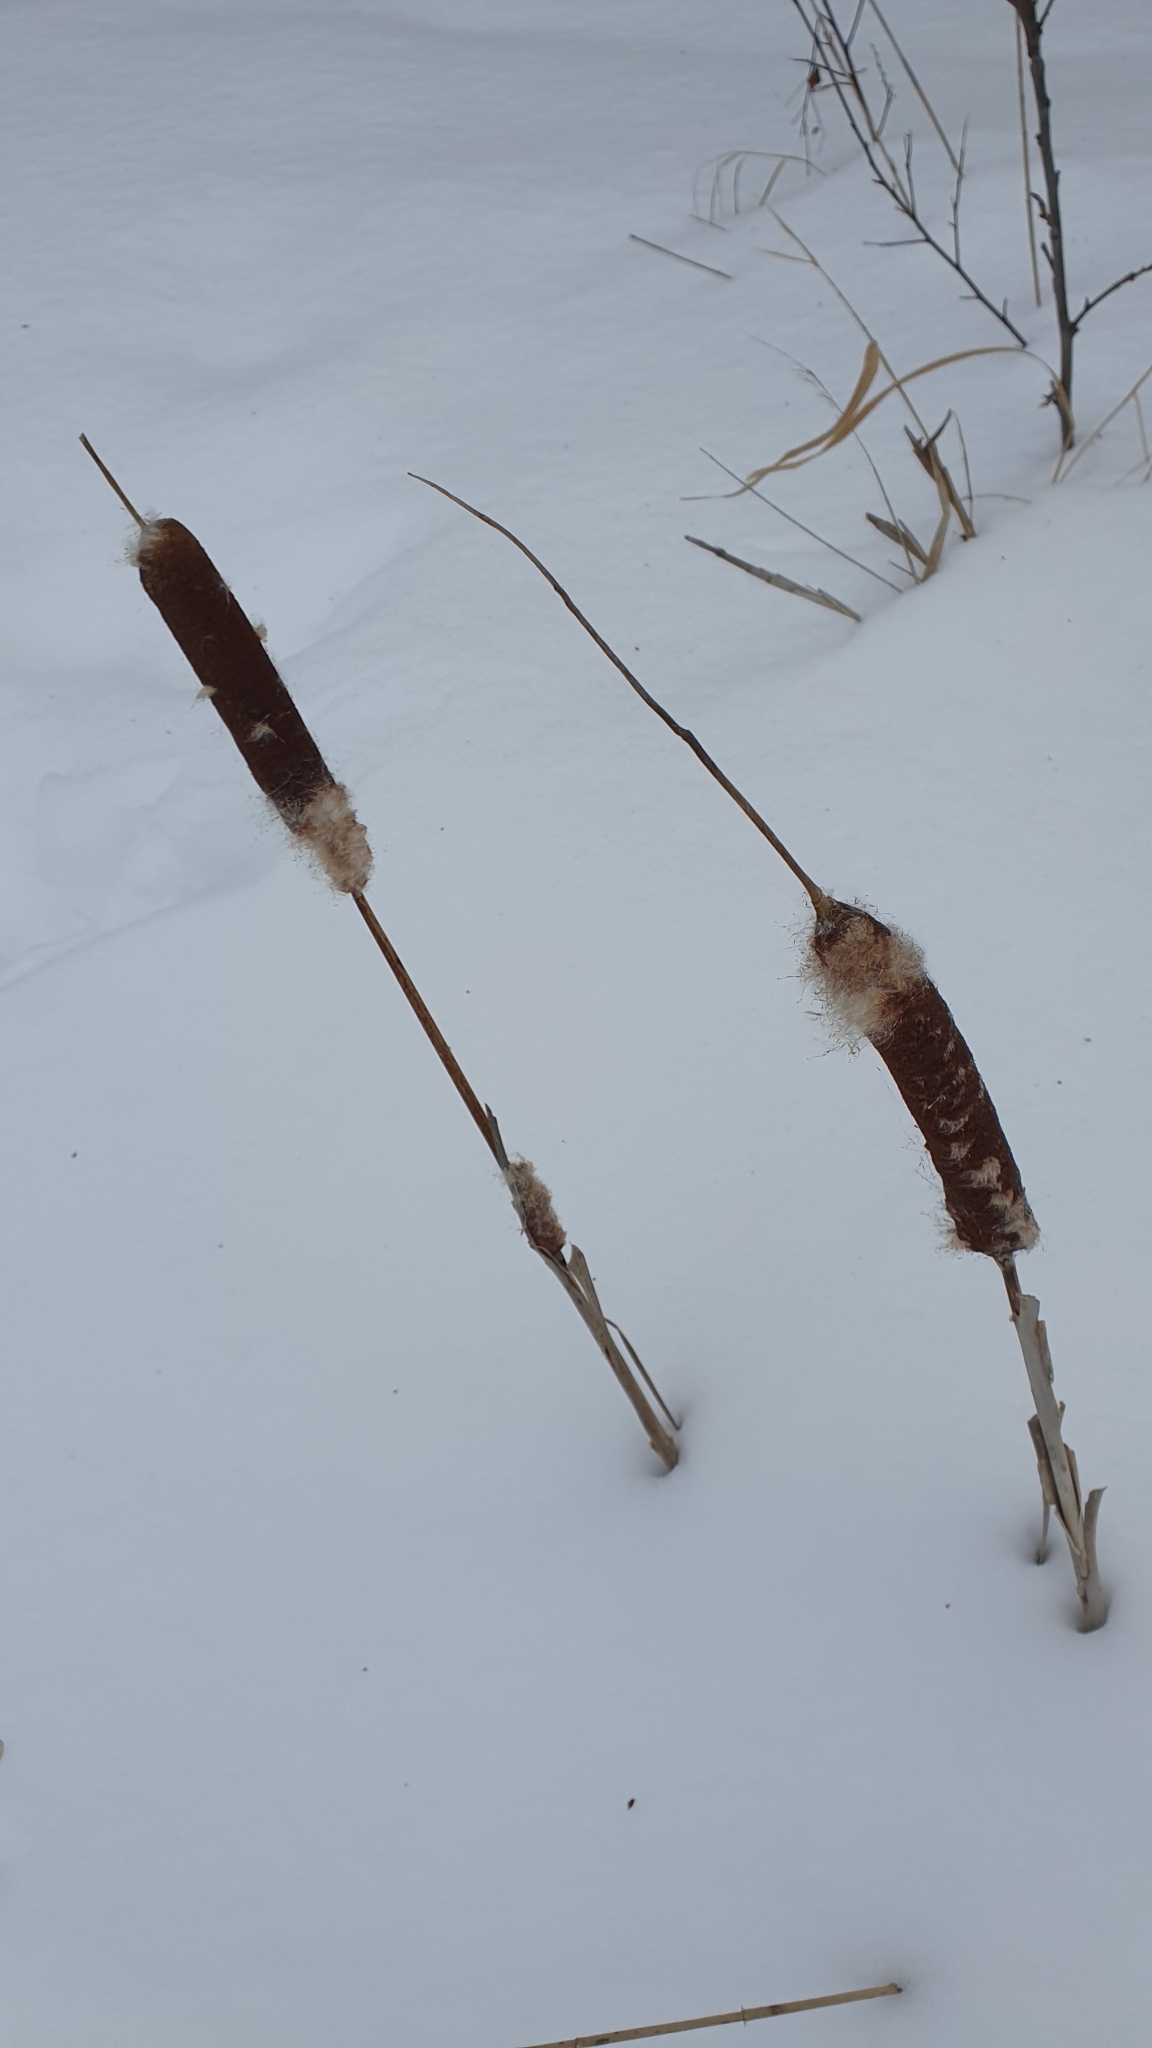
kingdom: Plantae
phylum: Tracheophyta
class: Liliopsida
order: Poales
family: Typhaceae
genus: Typha
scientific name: Typha latifolia
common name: Broadleaf cattail
